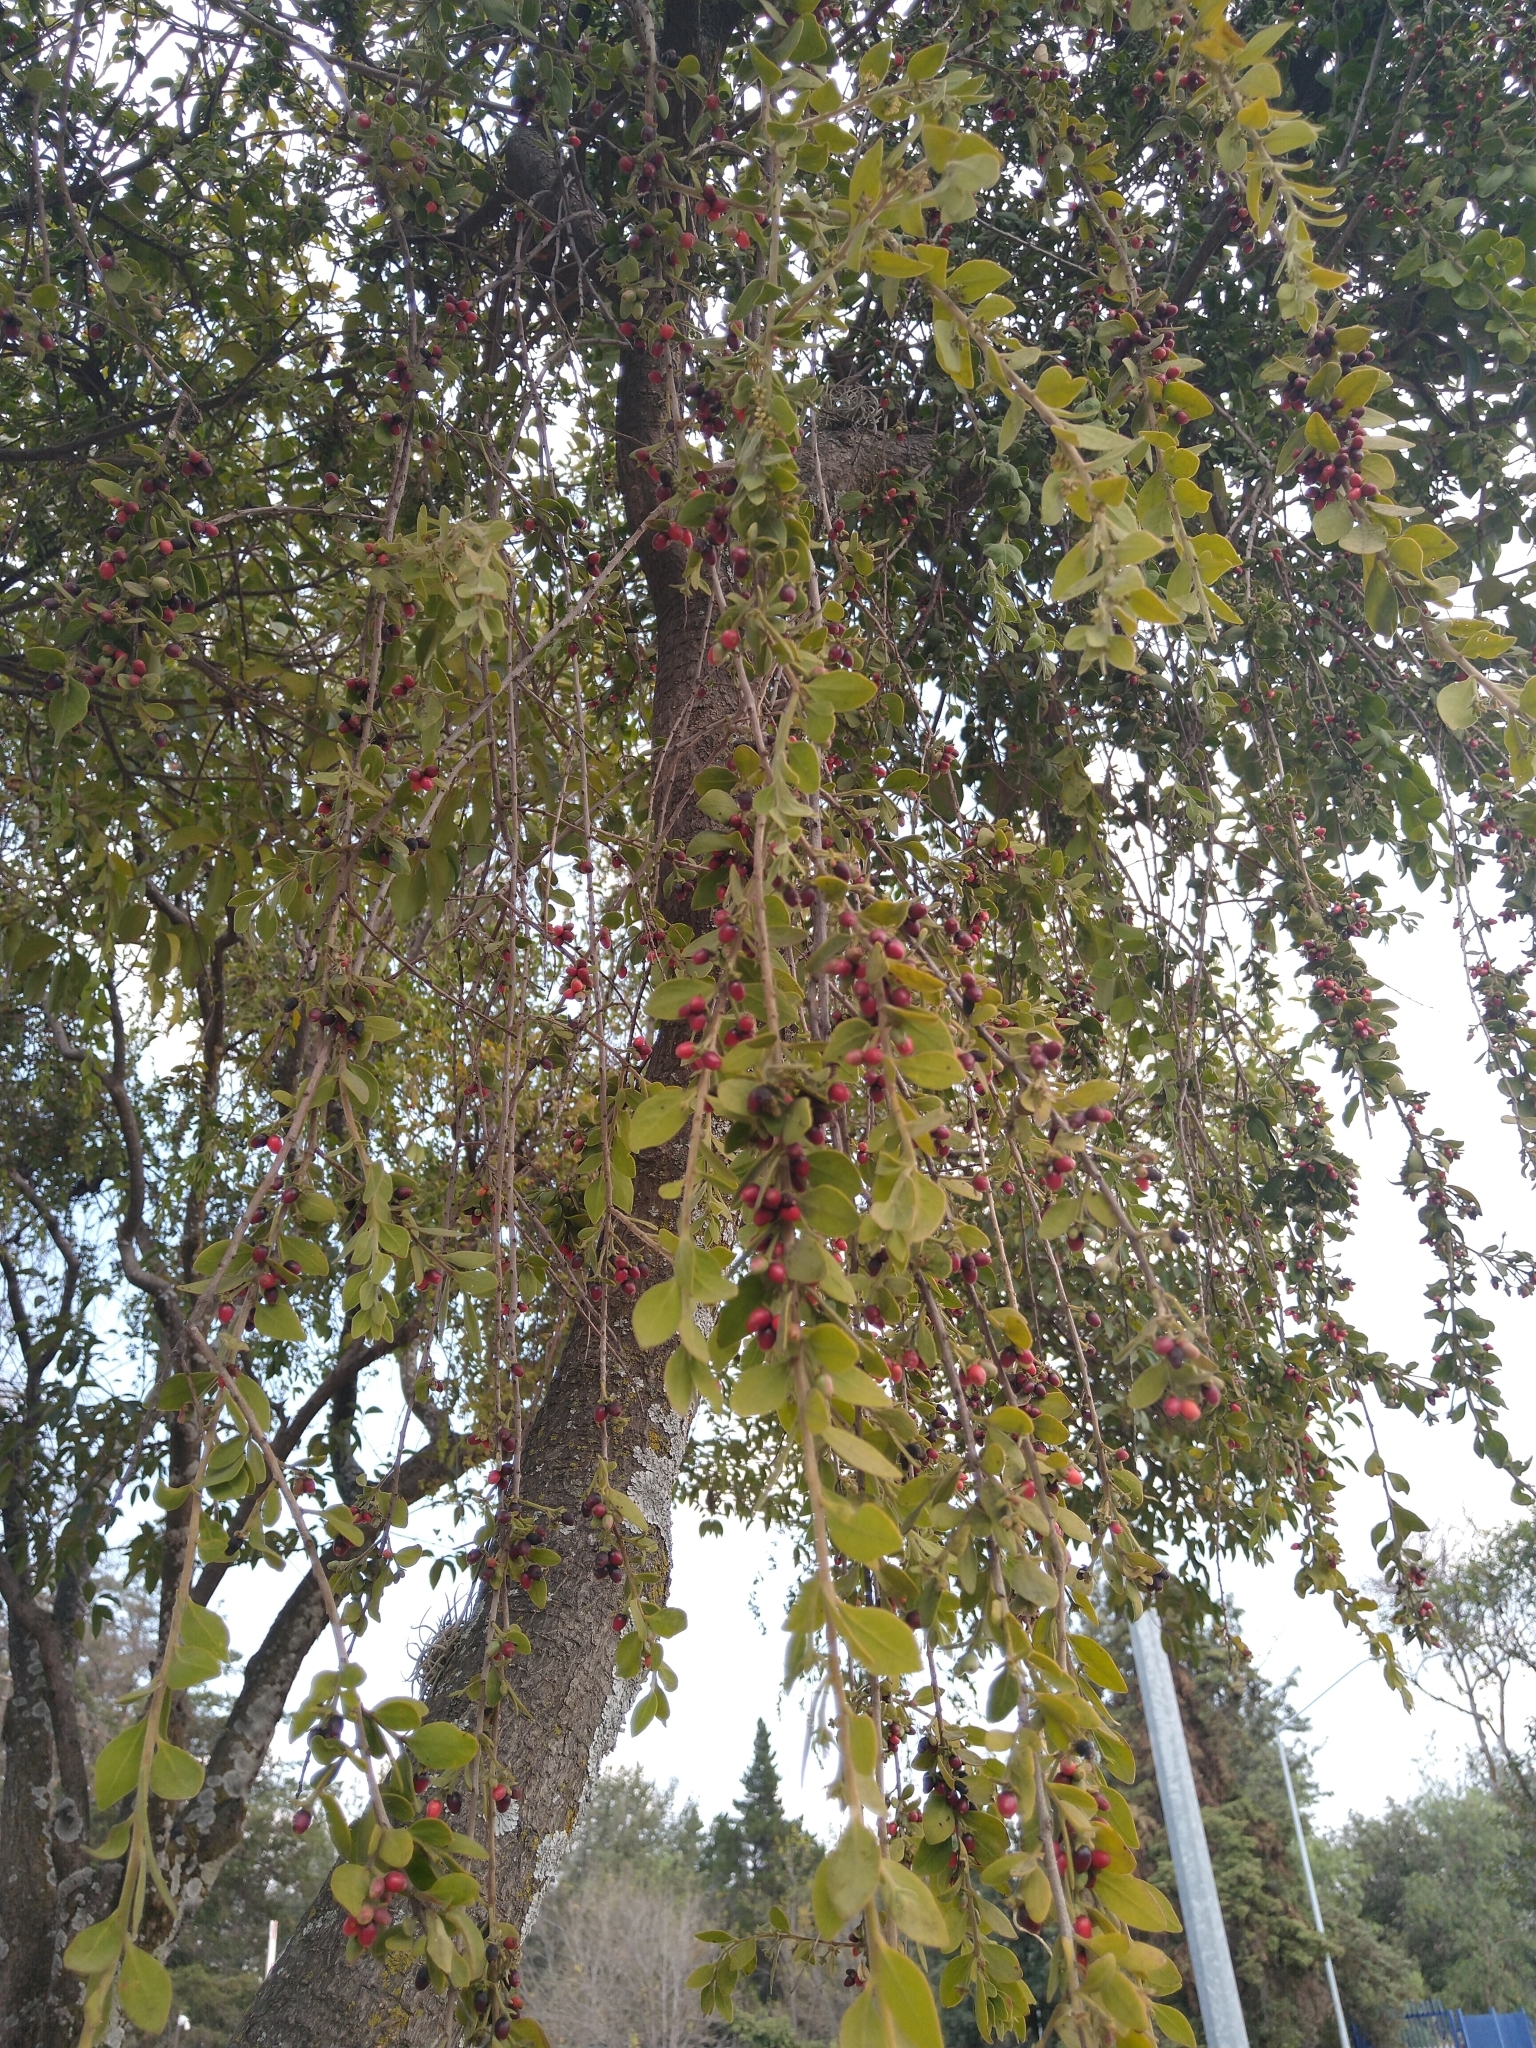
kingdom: Plantae
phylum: Tracheophyta
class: Magnoliopsida
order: Santalales
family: Loranthaceae
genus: Cladocolea
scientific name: Cladocolea loniceroides
